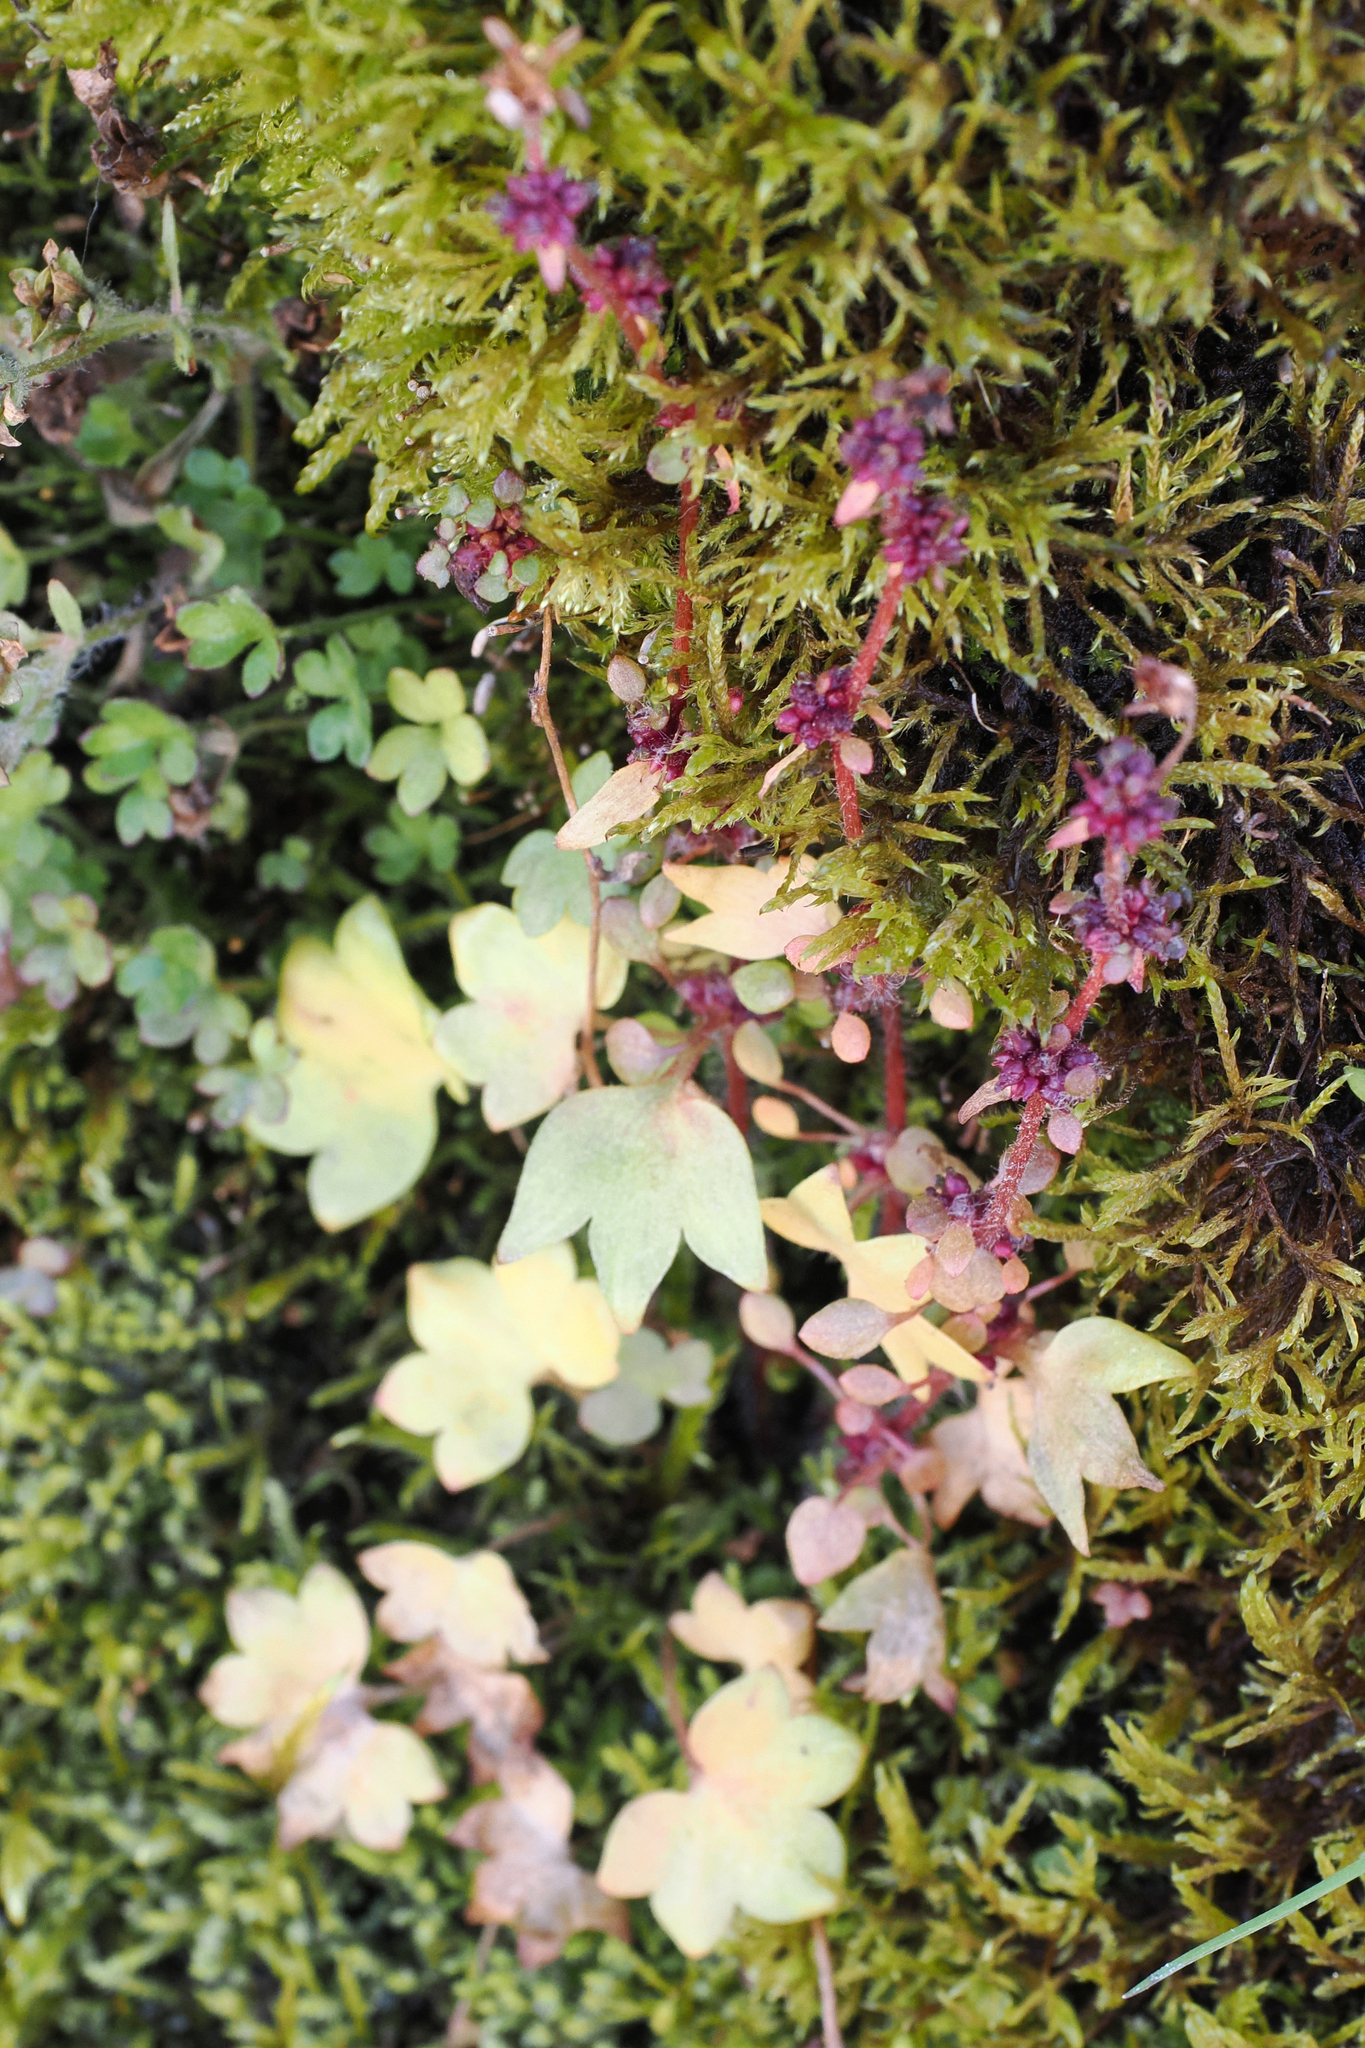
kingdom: Plantae
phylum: Tracheophyta
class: Magnoliopsida
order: Saxifragales
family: Saxifragaceae
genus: Saxifraga
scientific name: Saxifraga cernua
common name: Drooping saxifrage
